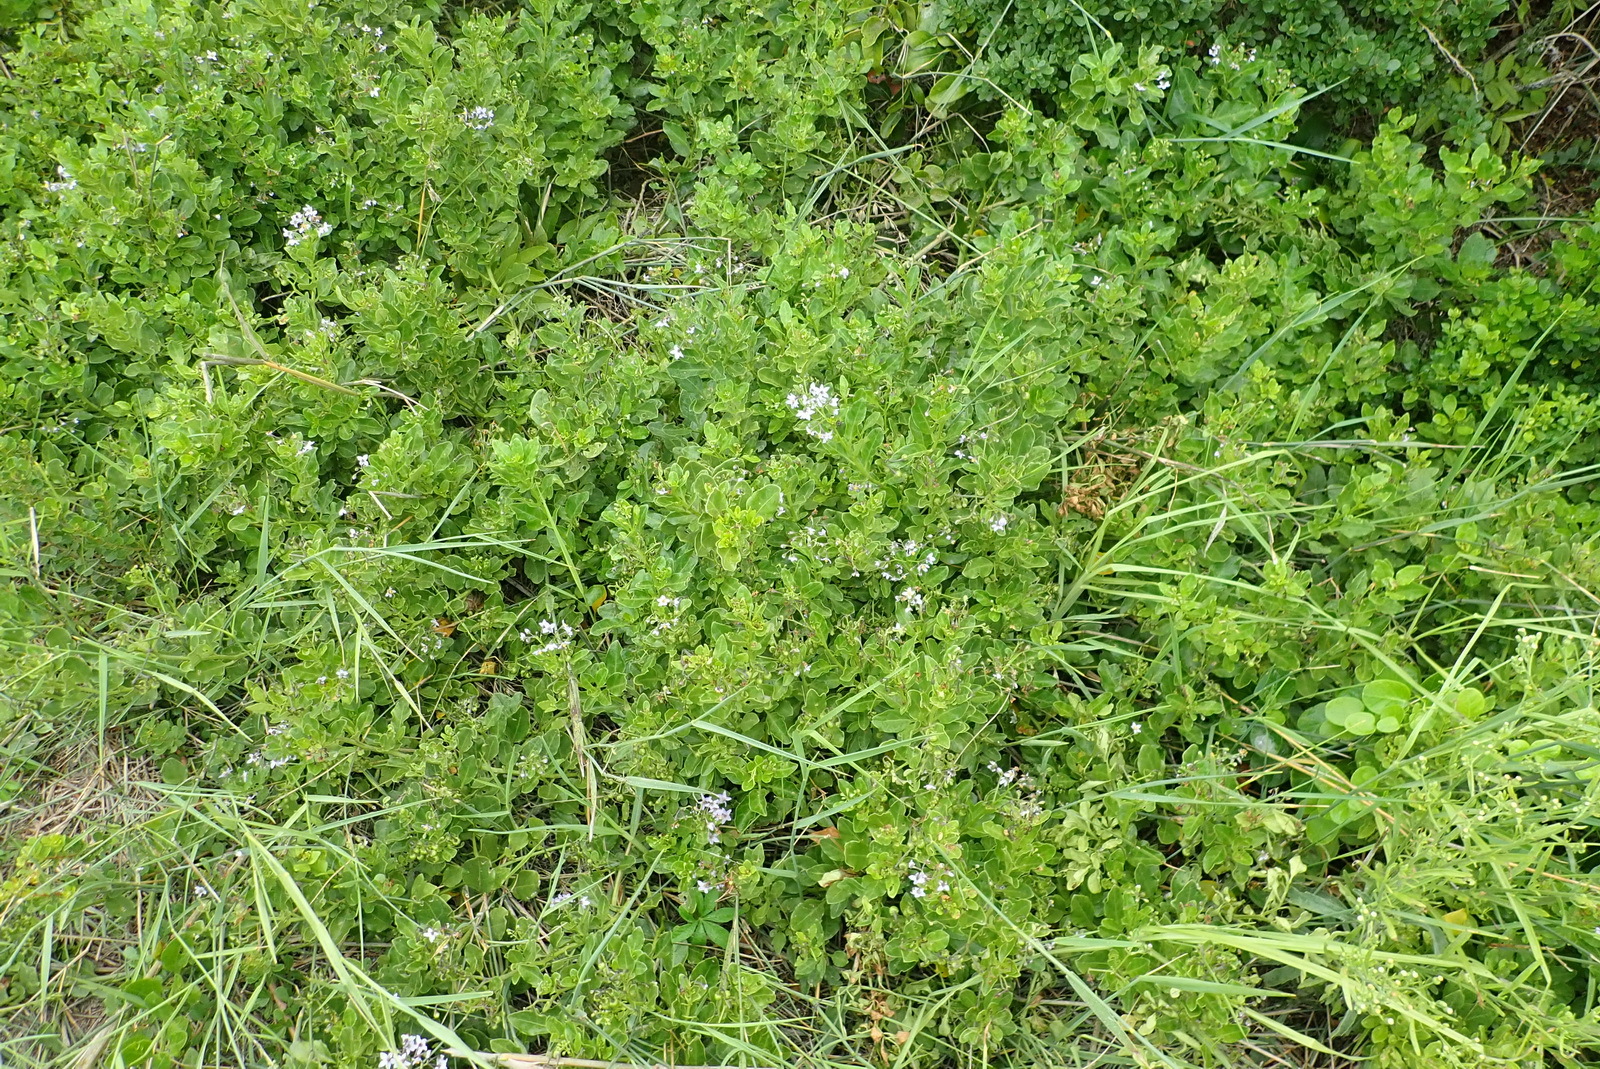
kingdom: Plantae
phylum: Tracheophyta
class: Magnoliopsida
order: Solanales
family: Solanaceae
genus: Solanum
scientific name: Solanum africanum
